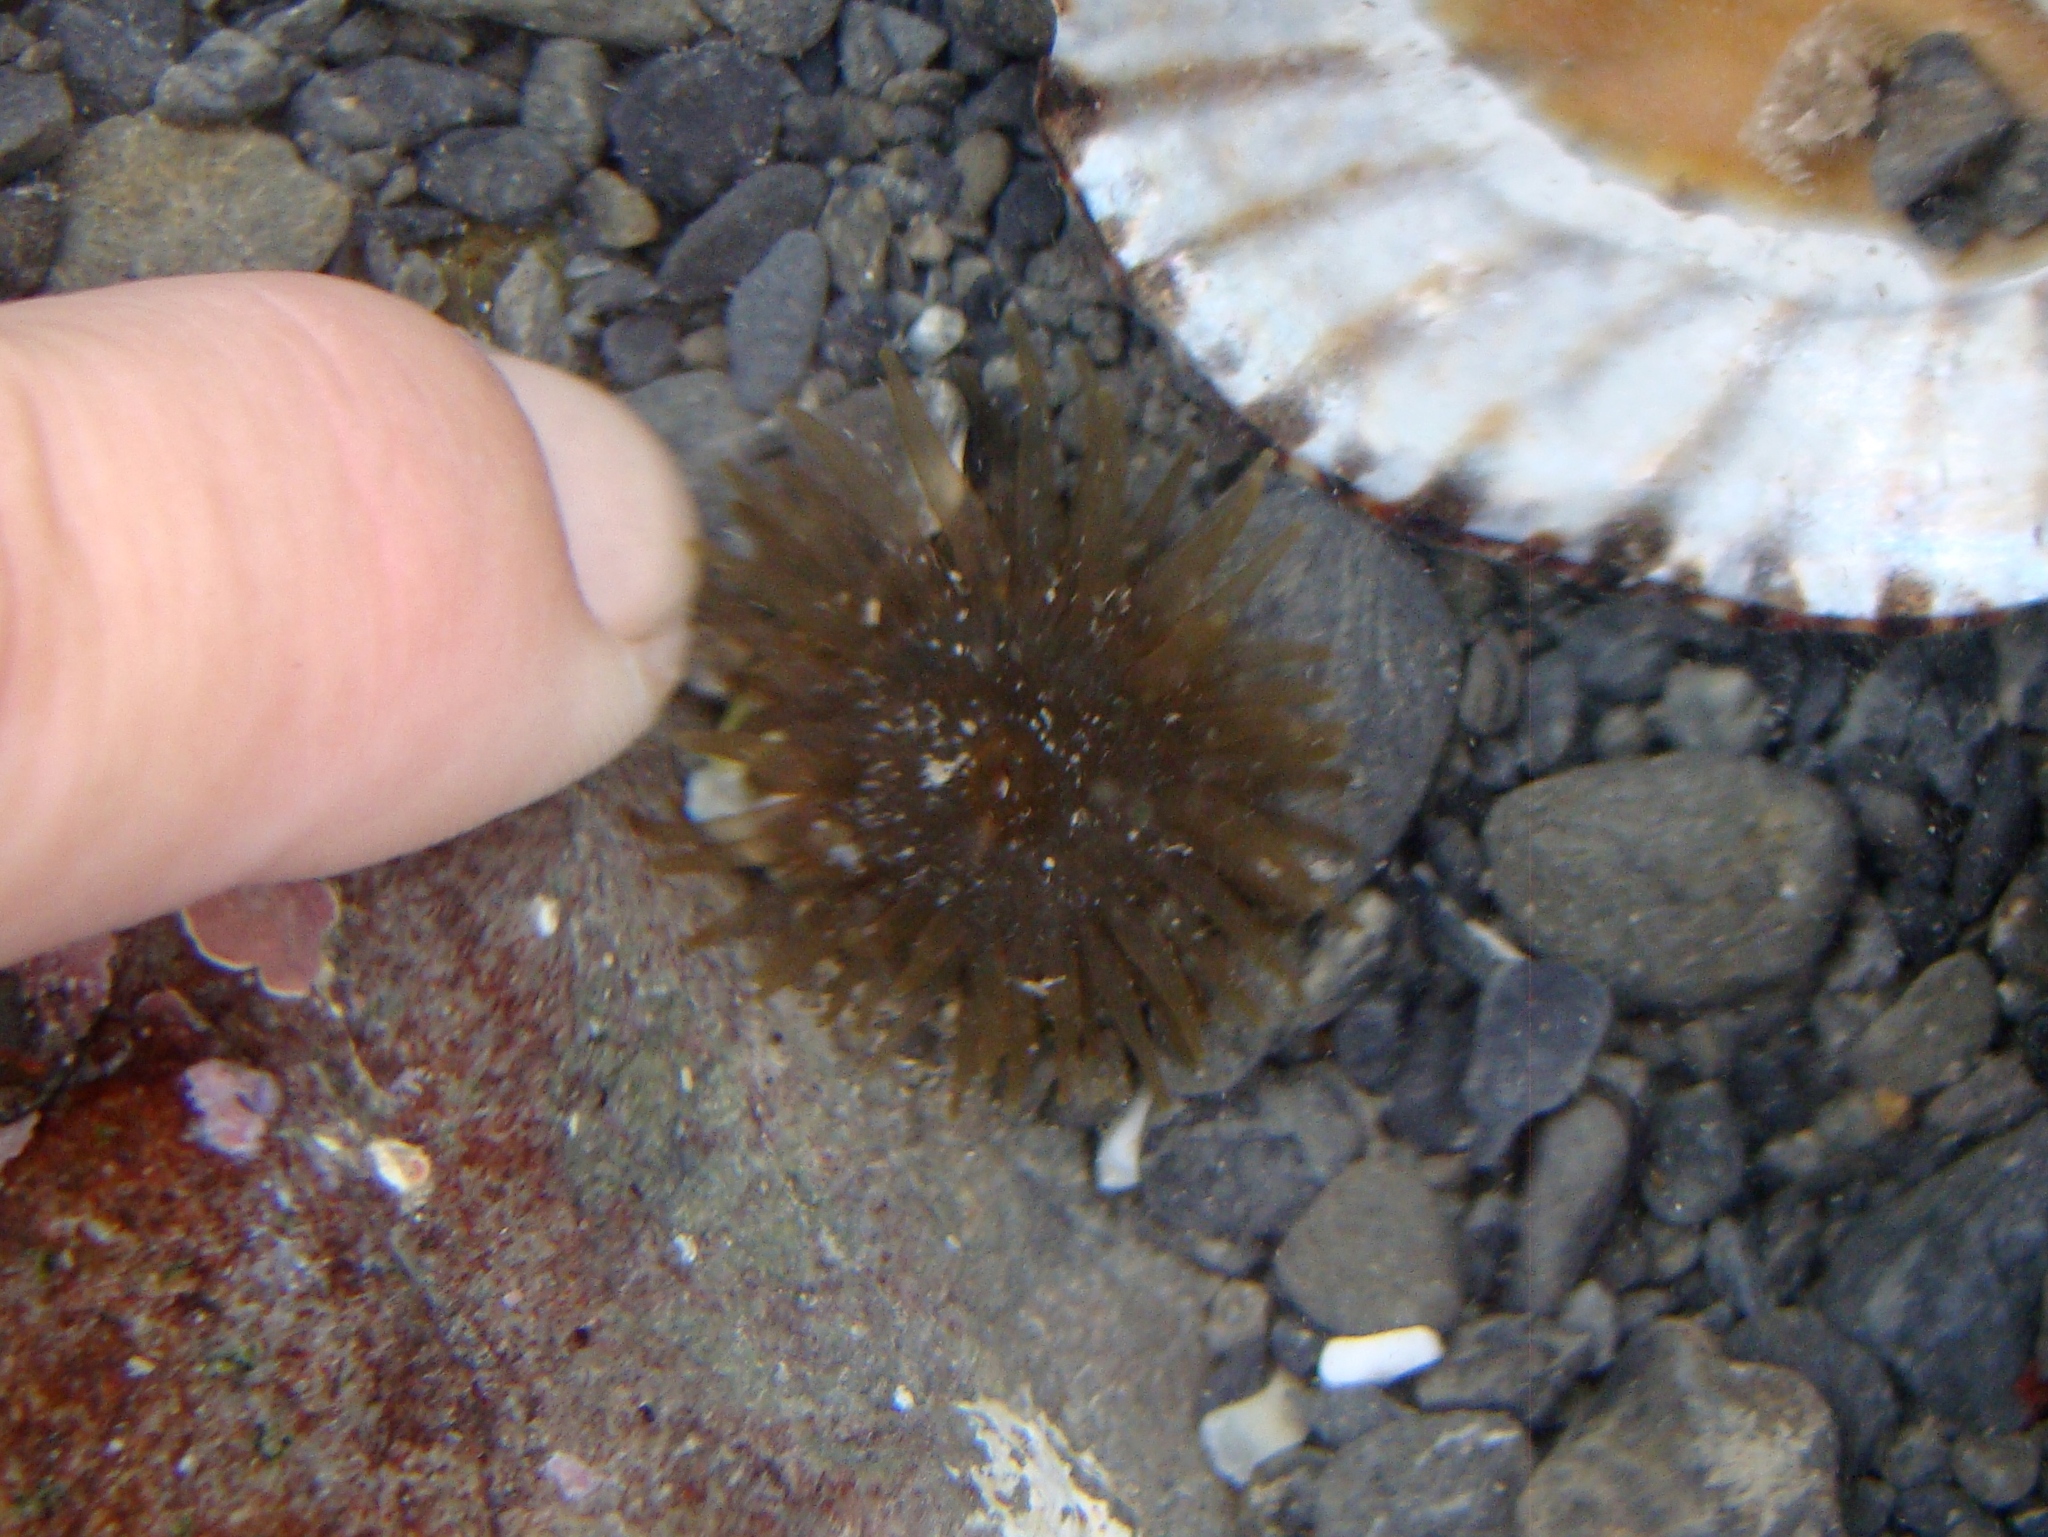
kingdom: Animalia
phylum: Cnidaria
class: Anthozoa
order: Actiniaria
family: Actiniidae
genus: Isactinia
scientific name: Isactinia olivacea
